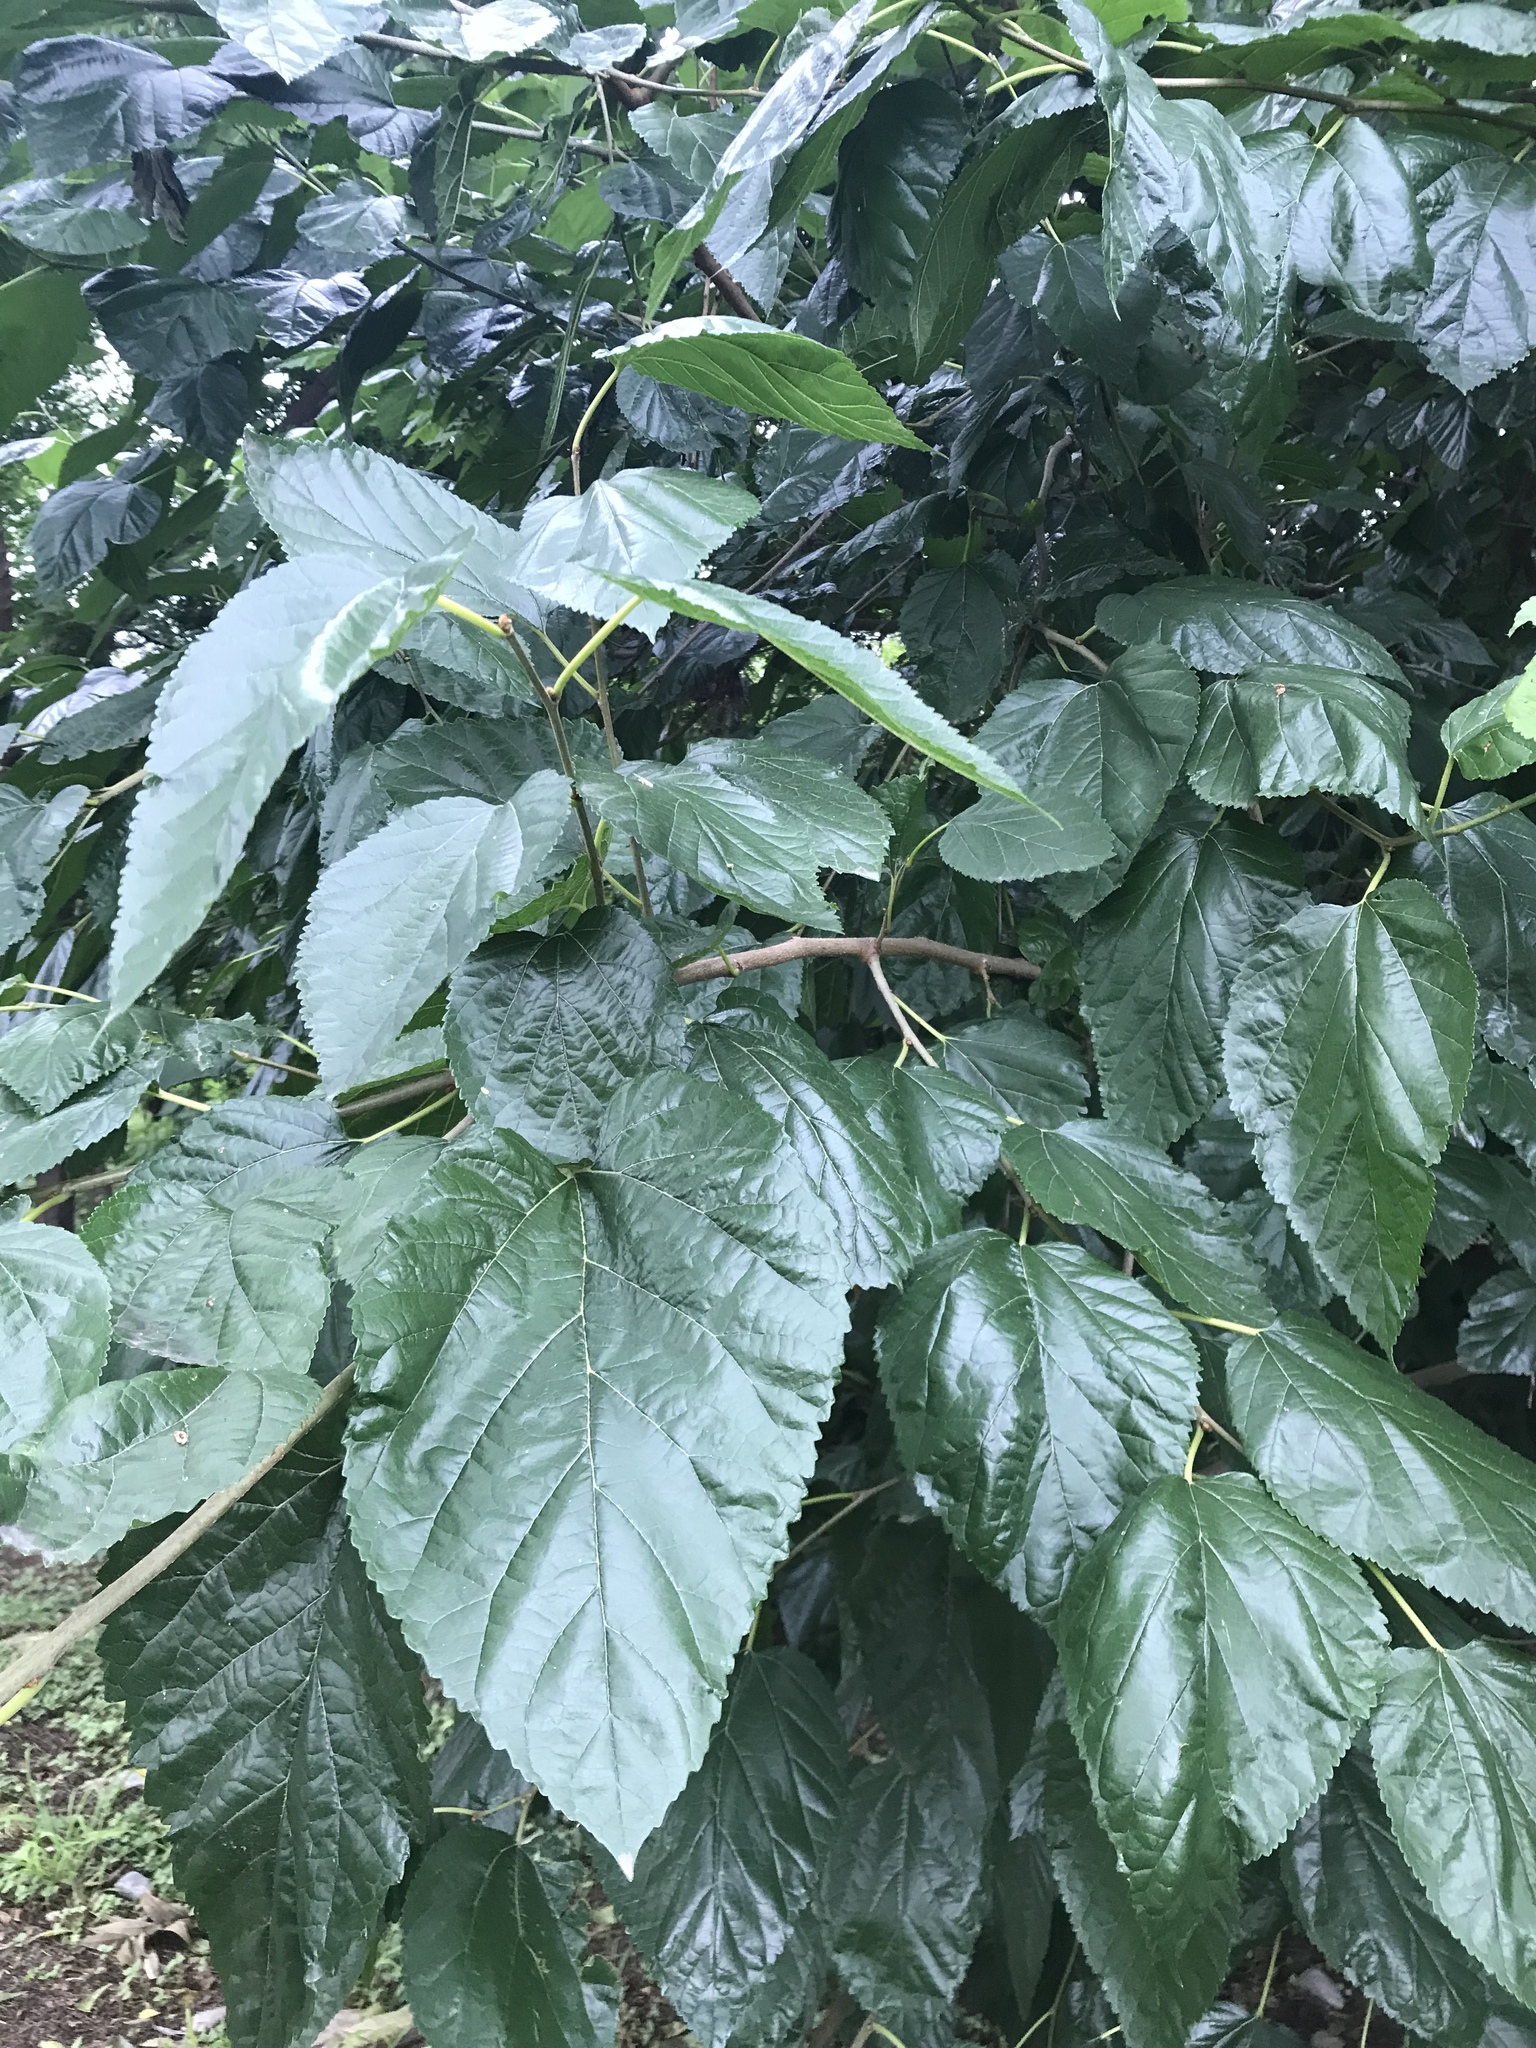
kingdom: Plantae
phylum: Tracheophyta
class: Magnoliopsida
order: Rosales
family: Moraceae
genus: Morus
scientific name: Morus alba
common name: White mulberry
